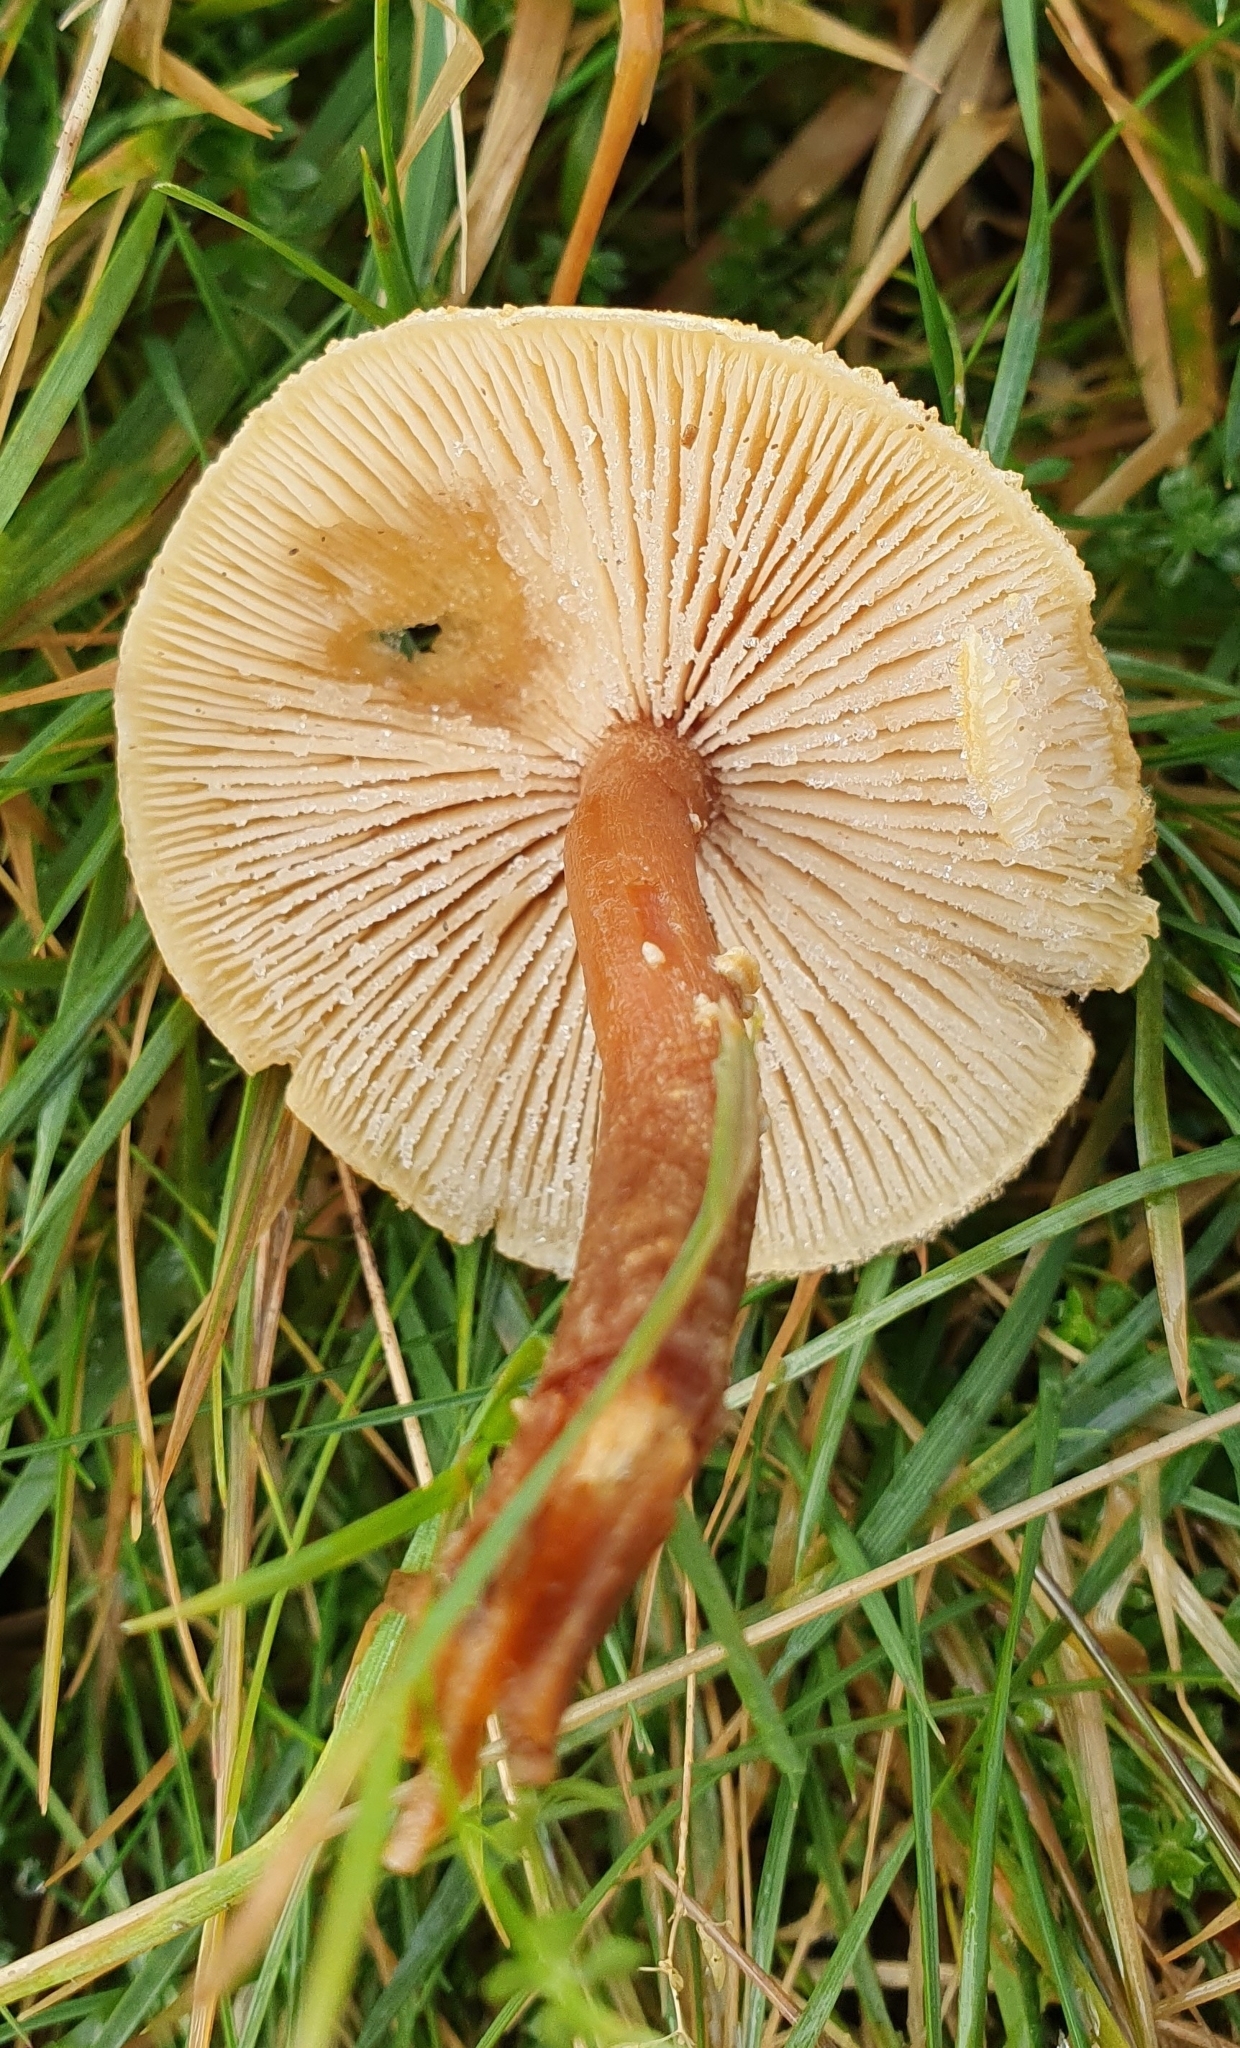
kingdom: Fungi
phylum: Basidiomycota
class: Agaricomycetes
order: Agaricales
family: Tricholomataceae
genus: Cystoderma
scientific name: Cystoderma amianthinum
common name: Earthy powdercap
